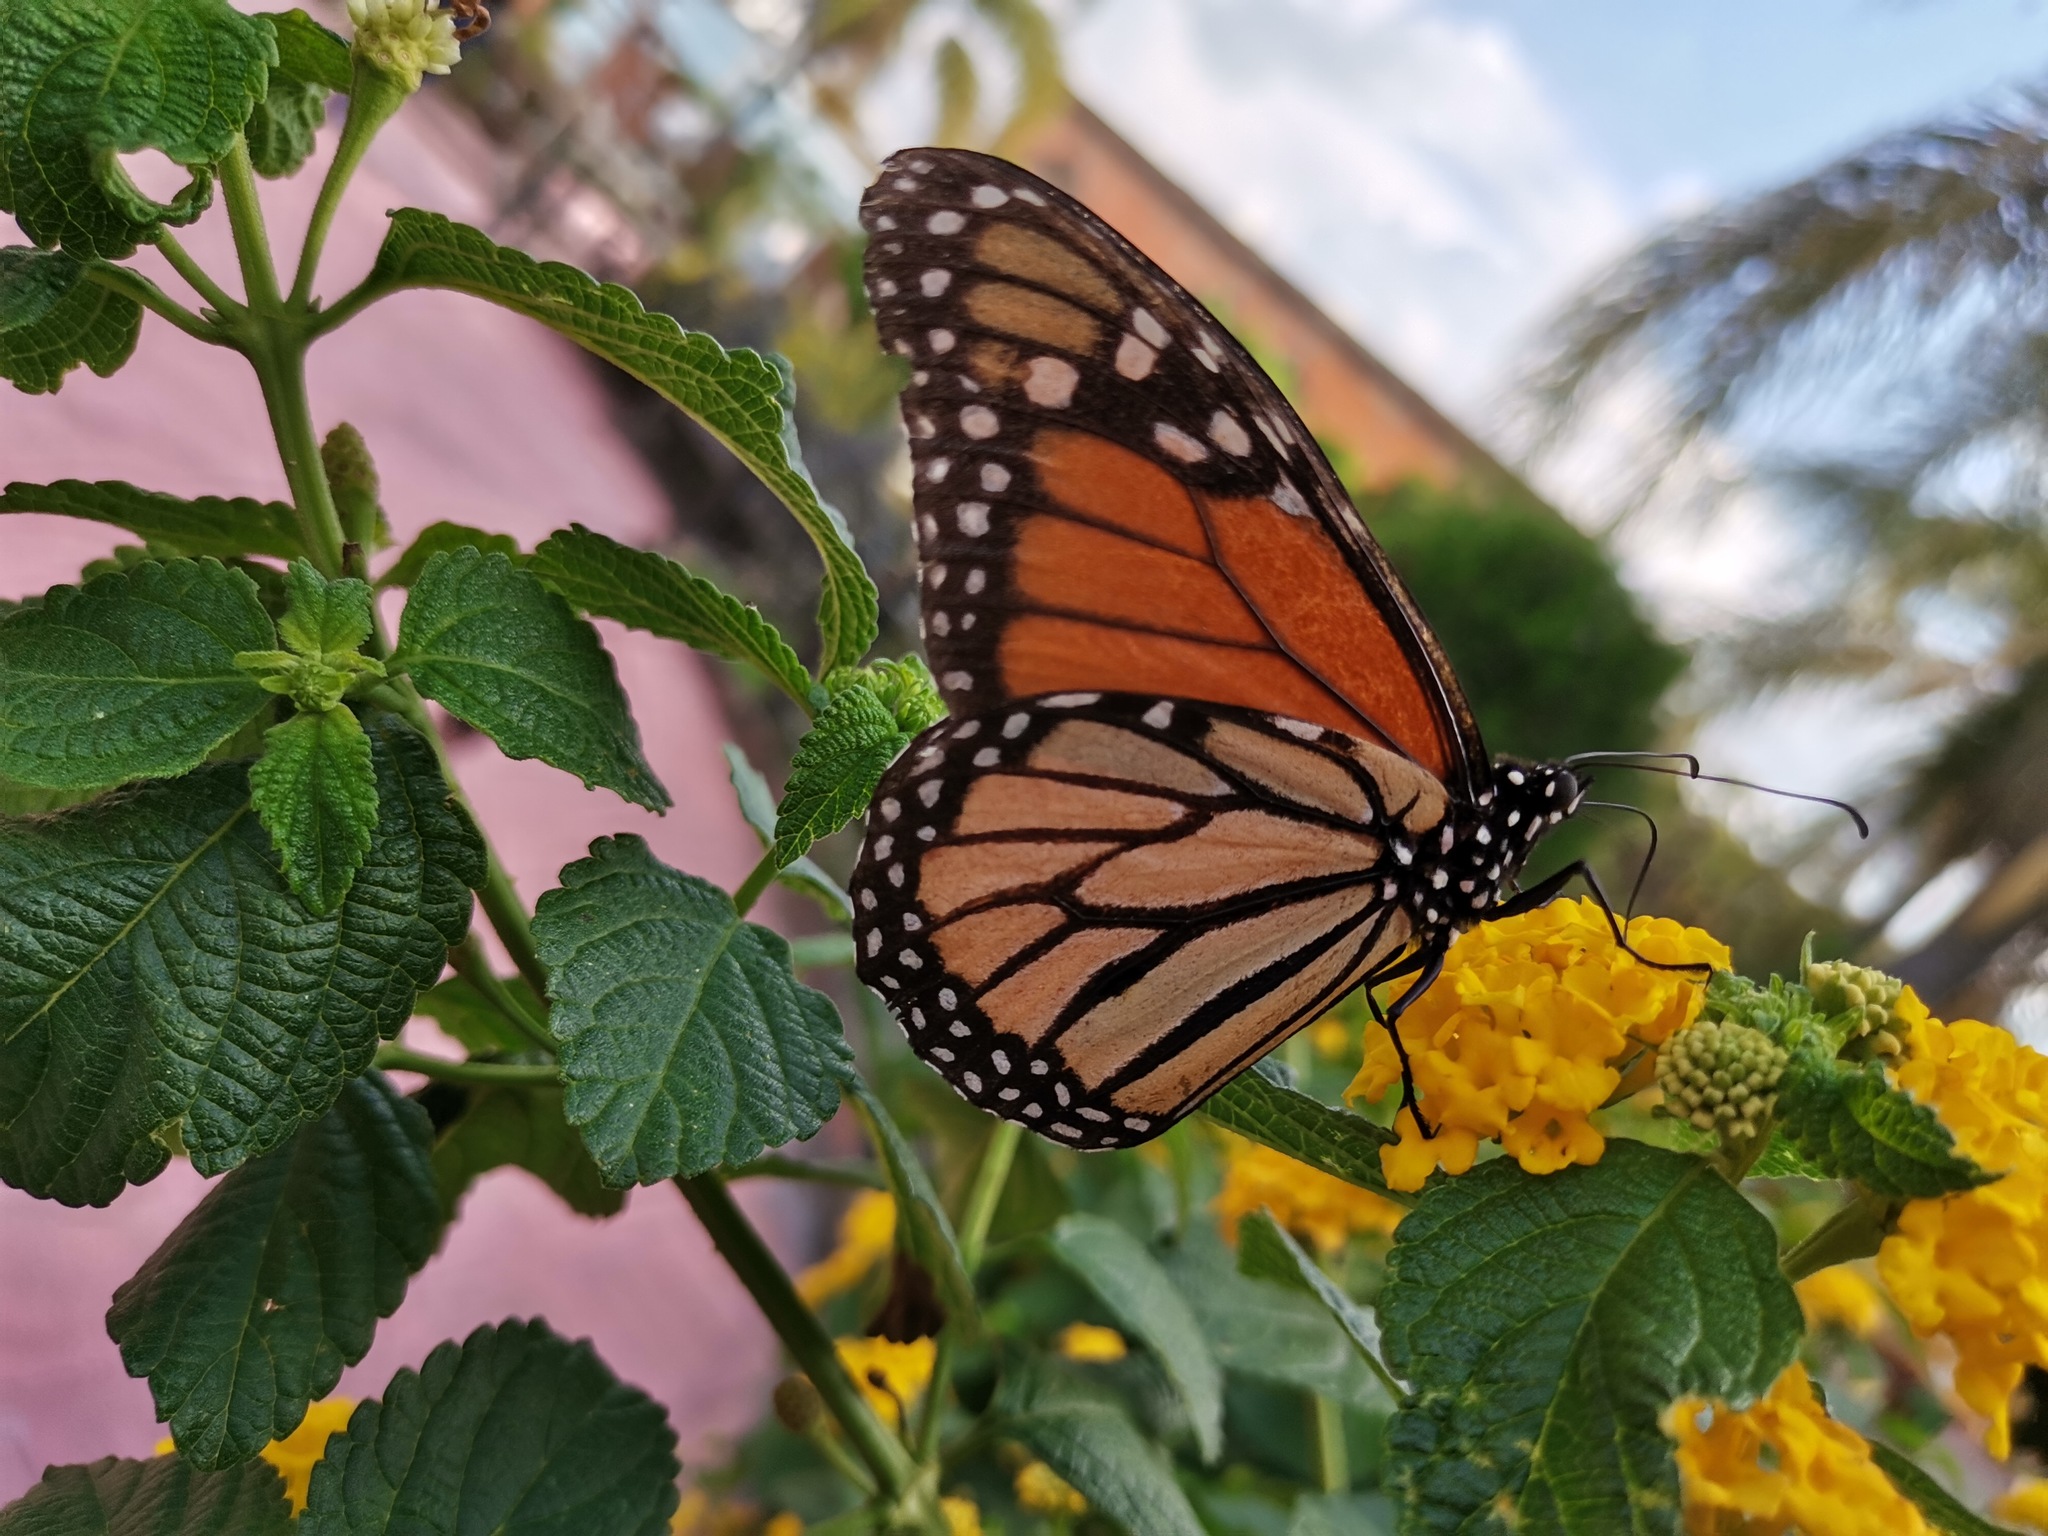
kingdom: Animalia
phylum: Arthropoda
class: Insecta
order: Lepidoptera
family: Nymphalidae
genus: Danaus
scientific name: Danaus plexippus
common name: Monarch
